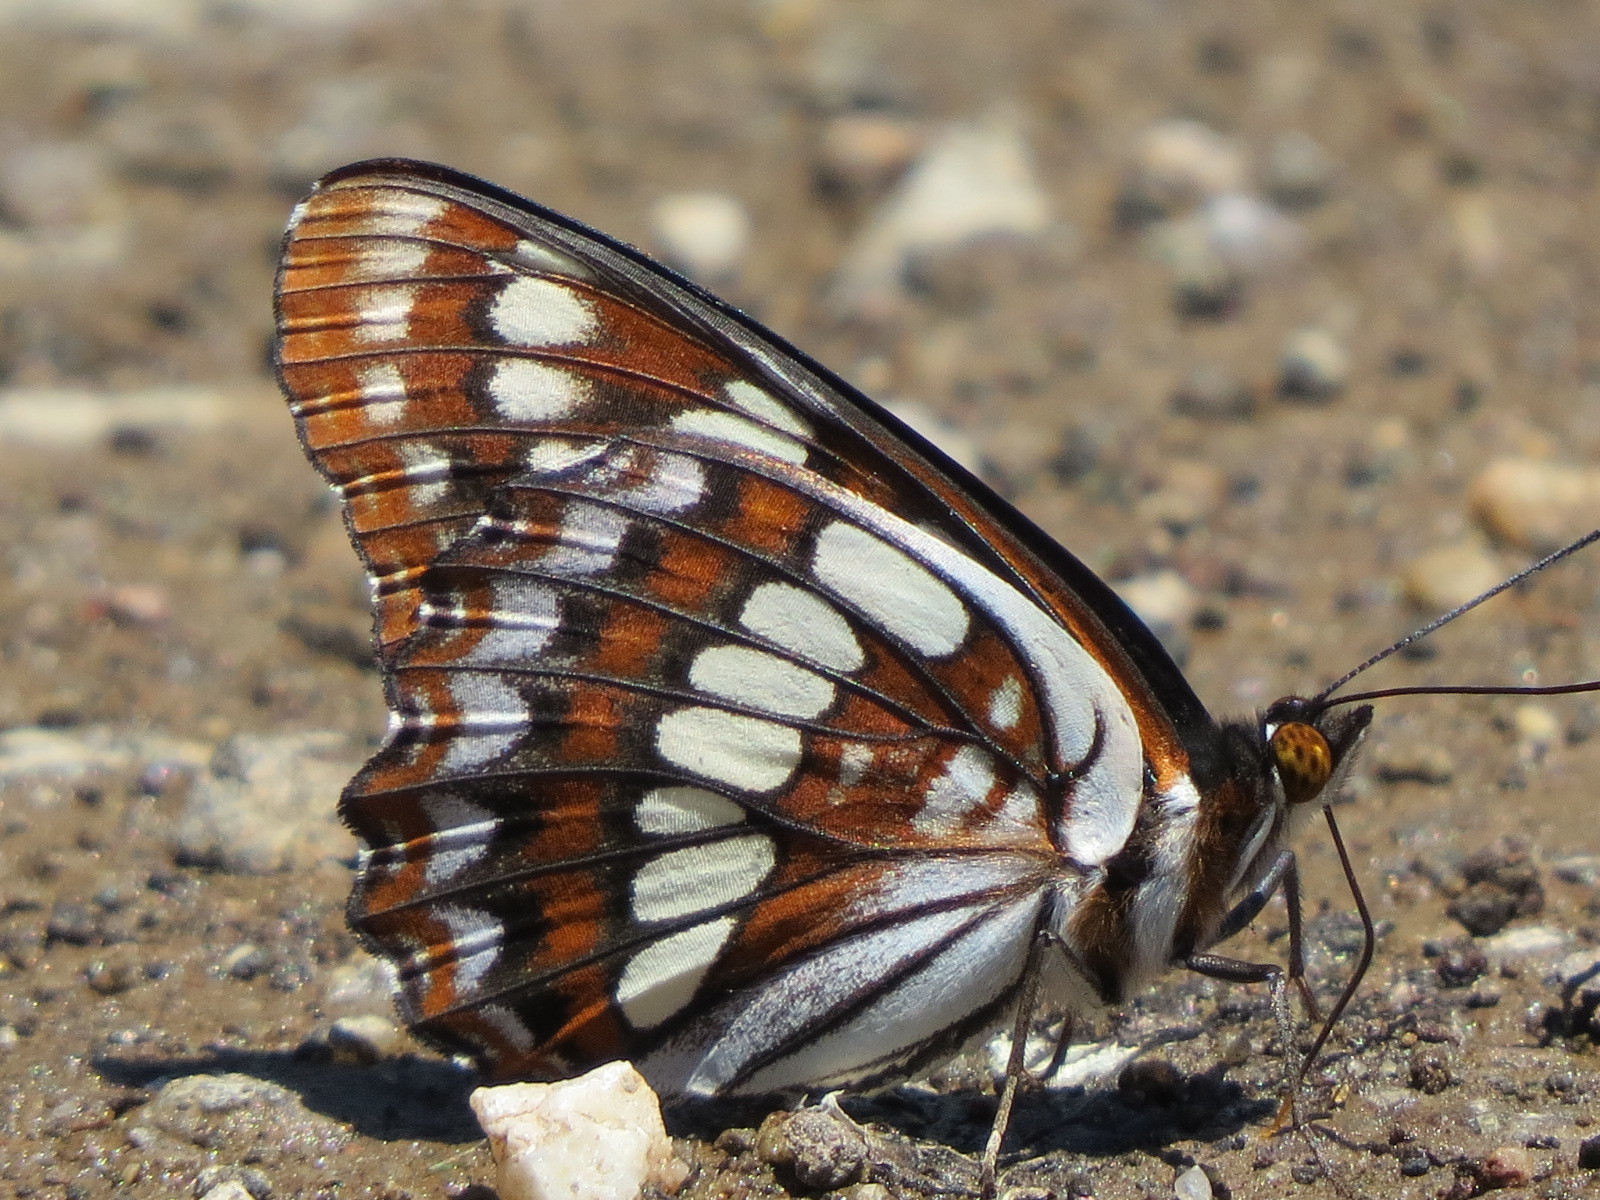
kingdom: Animalia
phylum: Arthropoda
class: Insecta
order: Lepidoptera
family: Nymphalidae
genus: Limenitis
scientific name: Limenitis lorquini
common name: Lorquin's admiral
